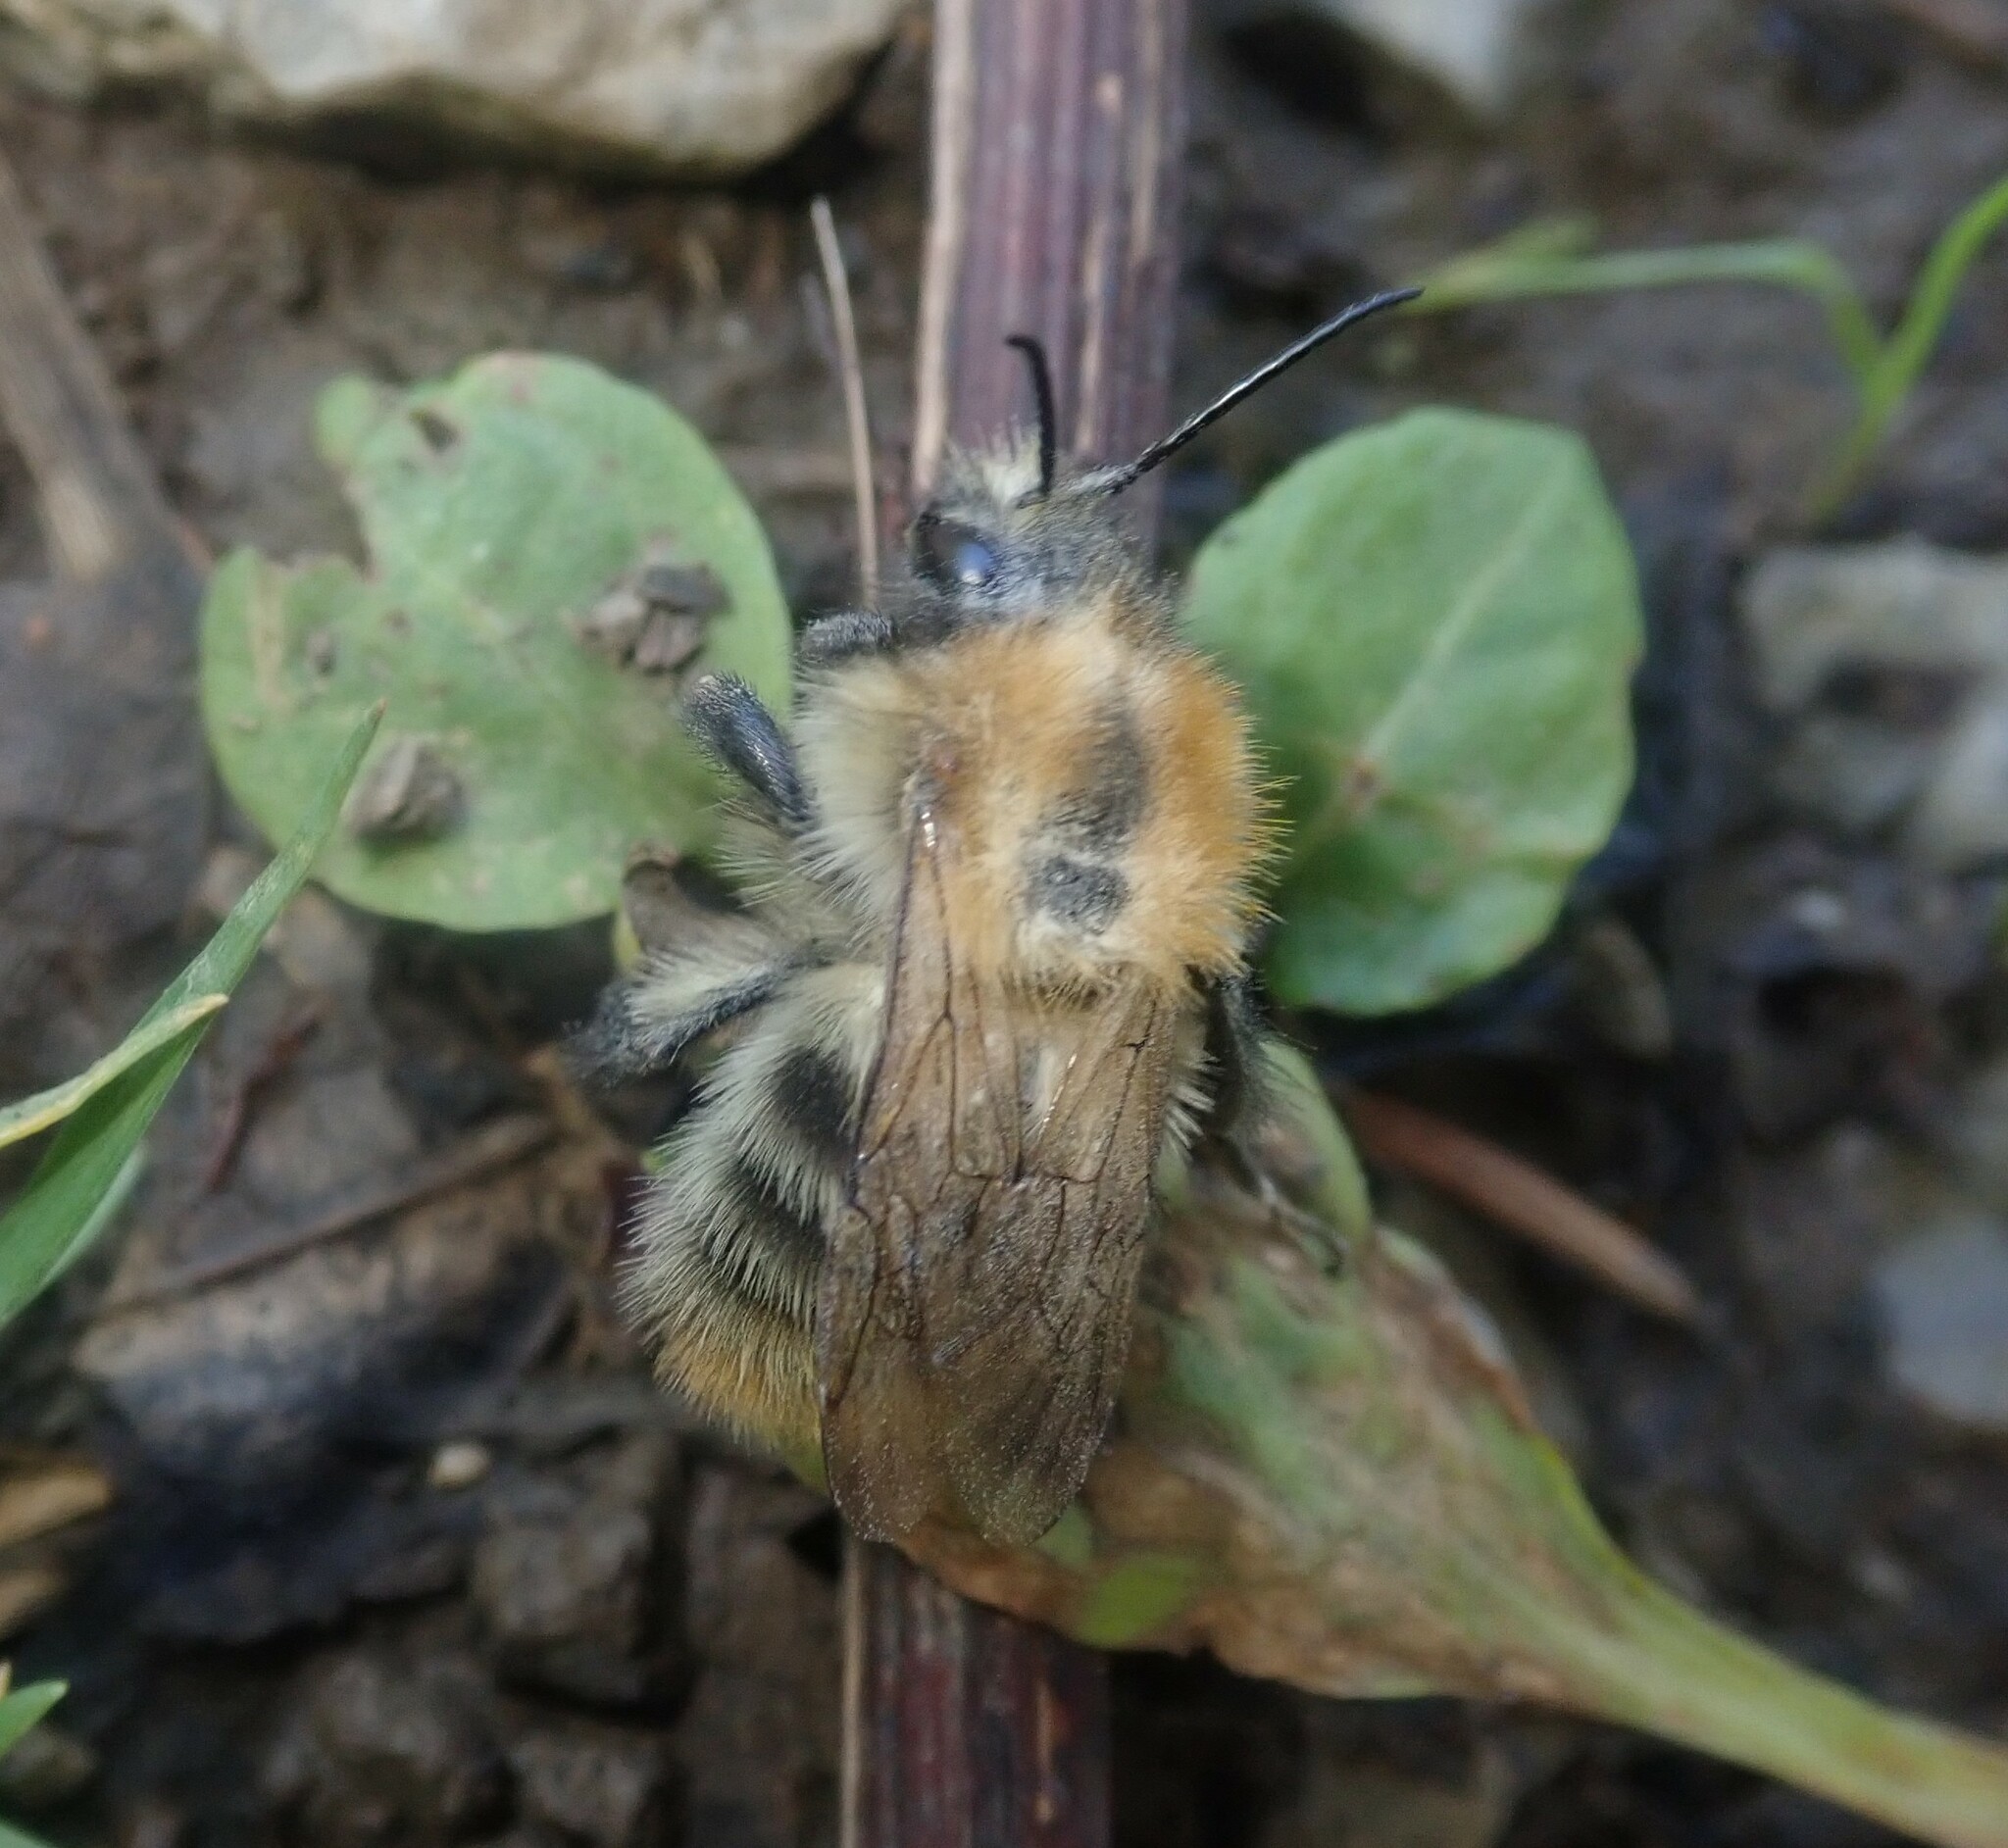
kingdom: Animalia
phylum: Arthropoda
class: Insecta
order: Hymenoptera
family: Apidae
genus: Bombus
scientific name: Bombus pascuorum
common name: Common carder bee
